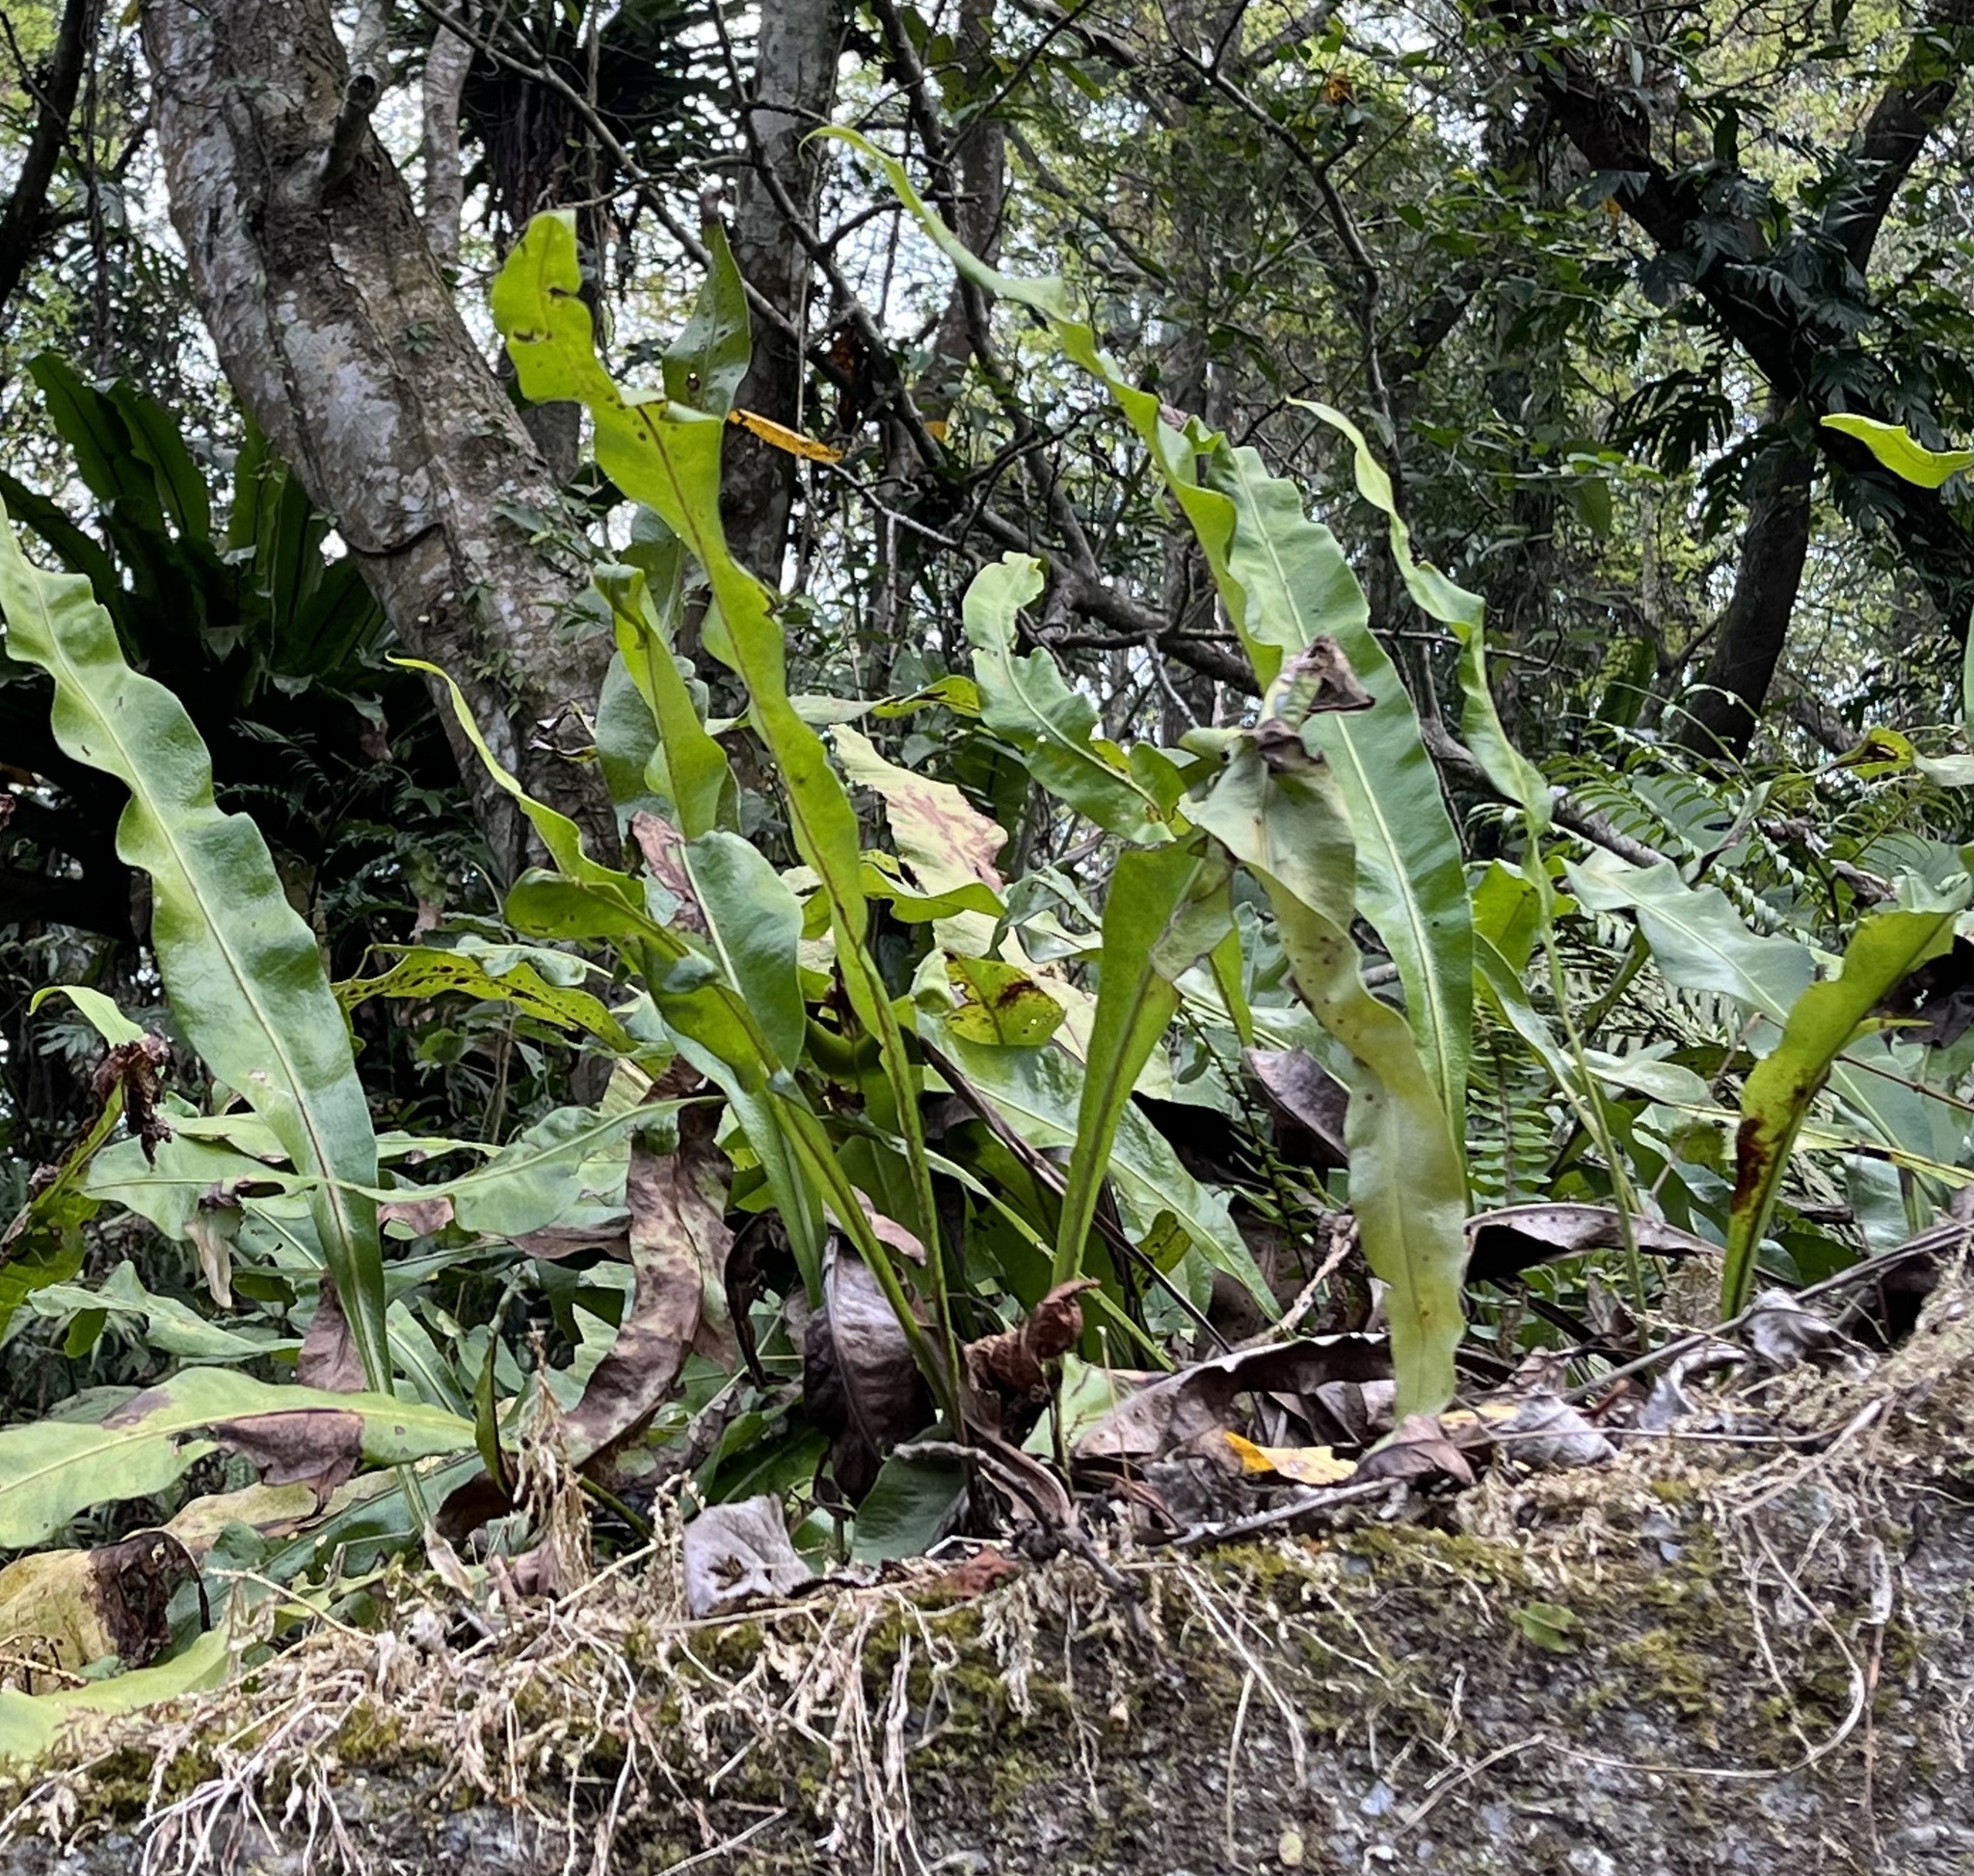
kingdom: Plantae
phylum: Tracheophyta
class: Polypodiopsida
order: Polypodiales
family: Polypodiaceae
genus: Lepisorus
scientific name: Lepisorus fortuni
